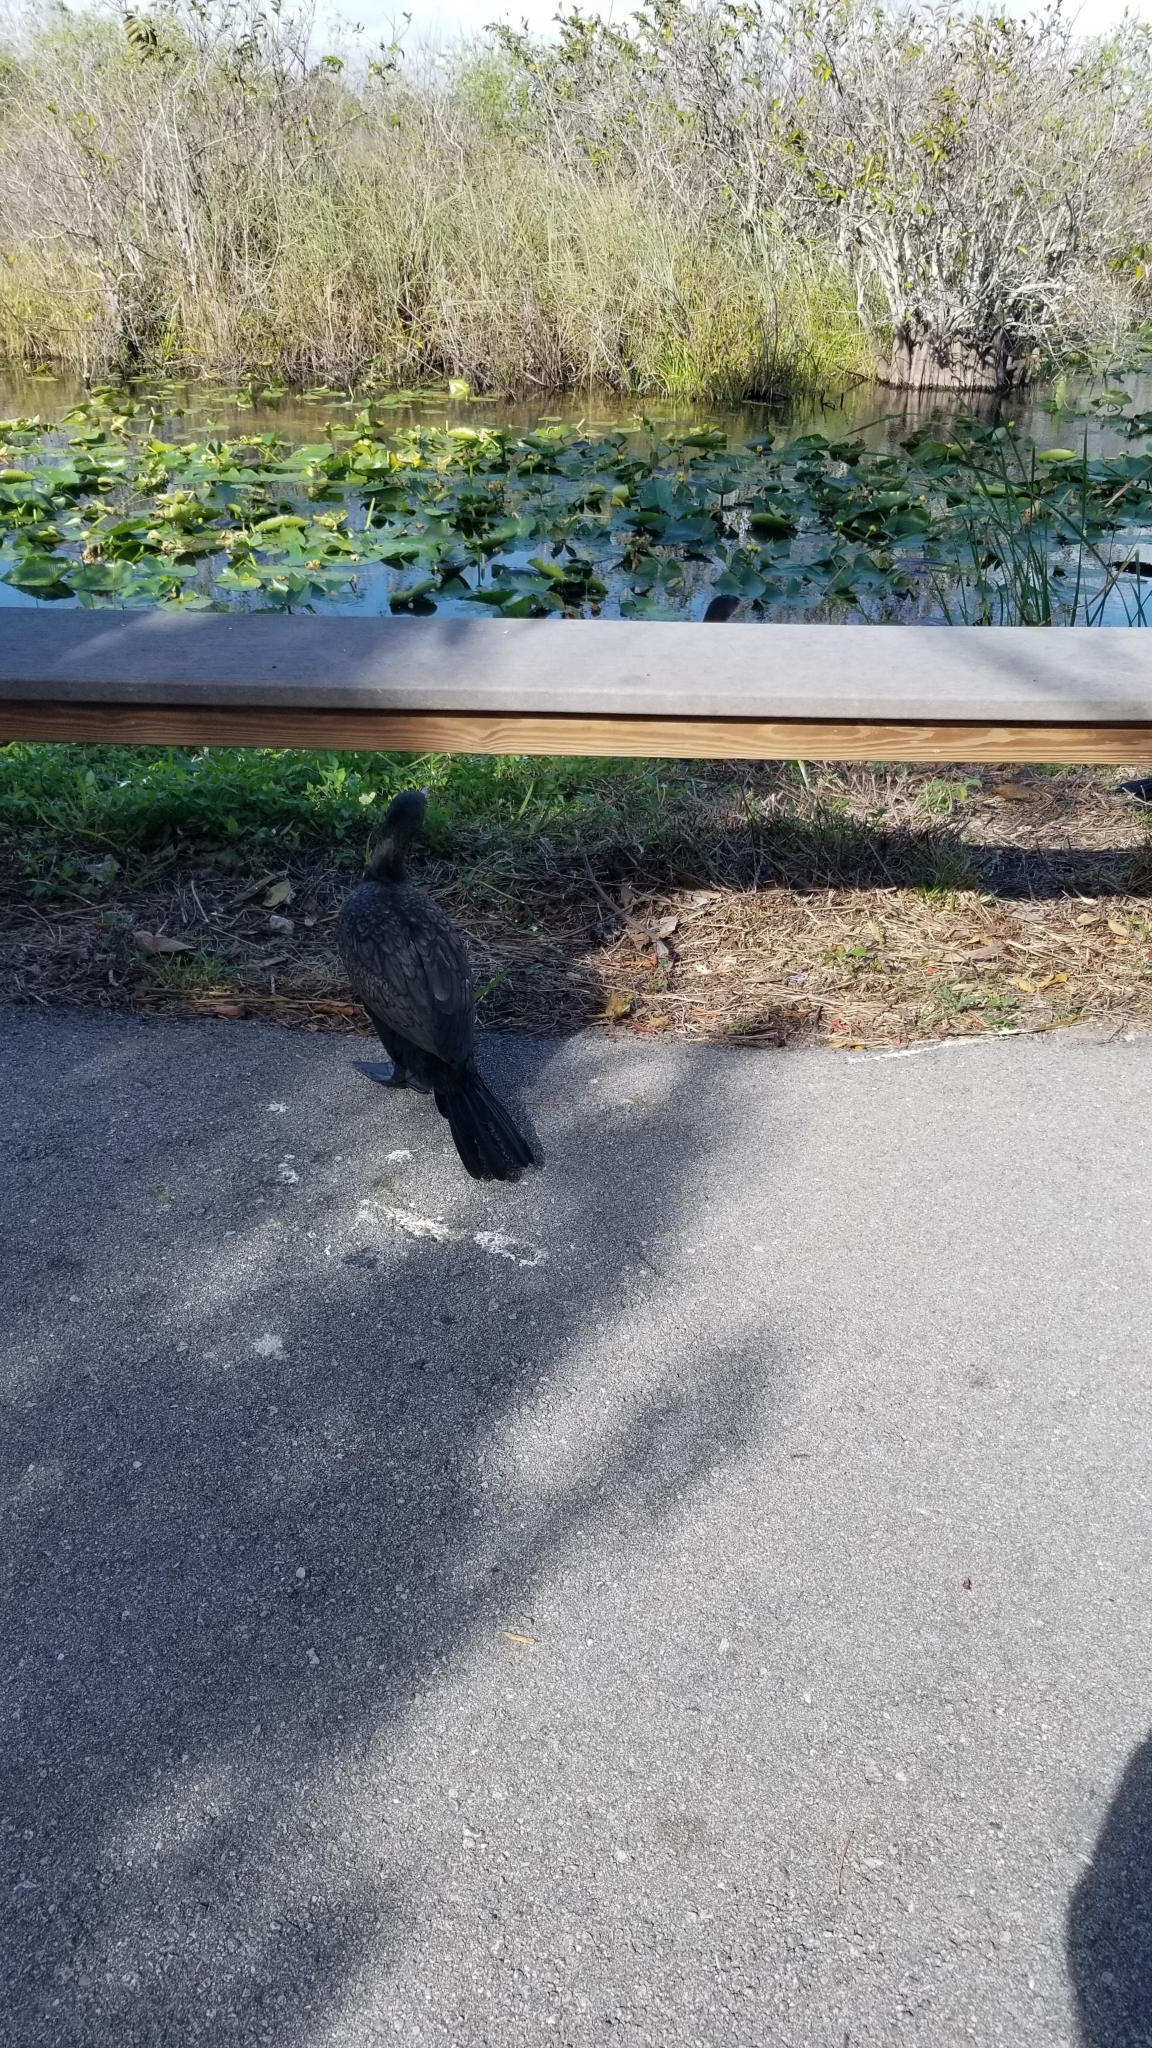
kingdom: Animalia
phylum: Chordata
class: Aves
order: Suliformes
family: Phalacrocoracidae
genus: Phalacrocorax
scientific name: Phalacrocorax auritus
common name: Double-crested cormorant
